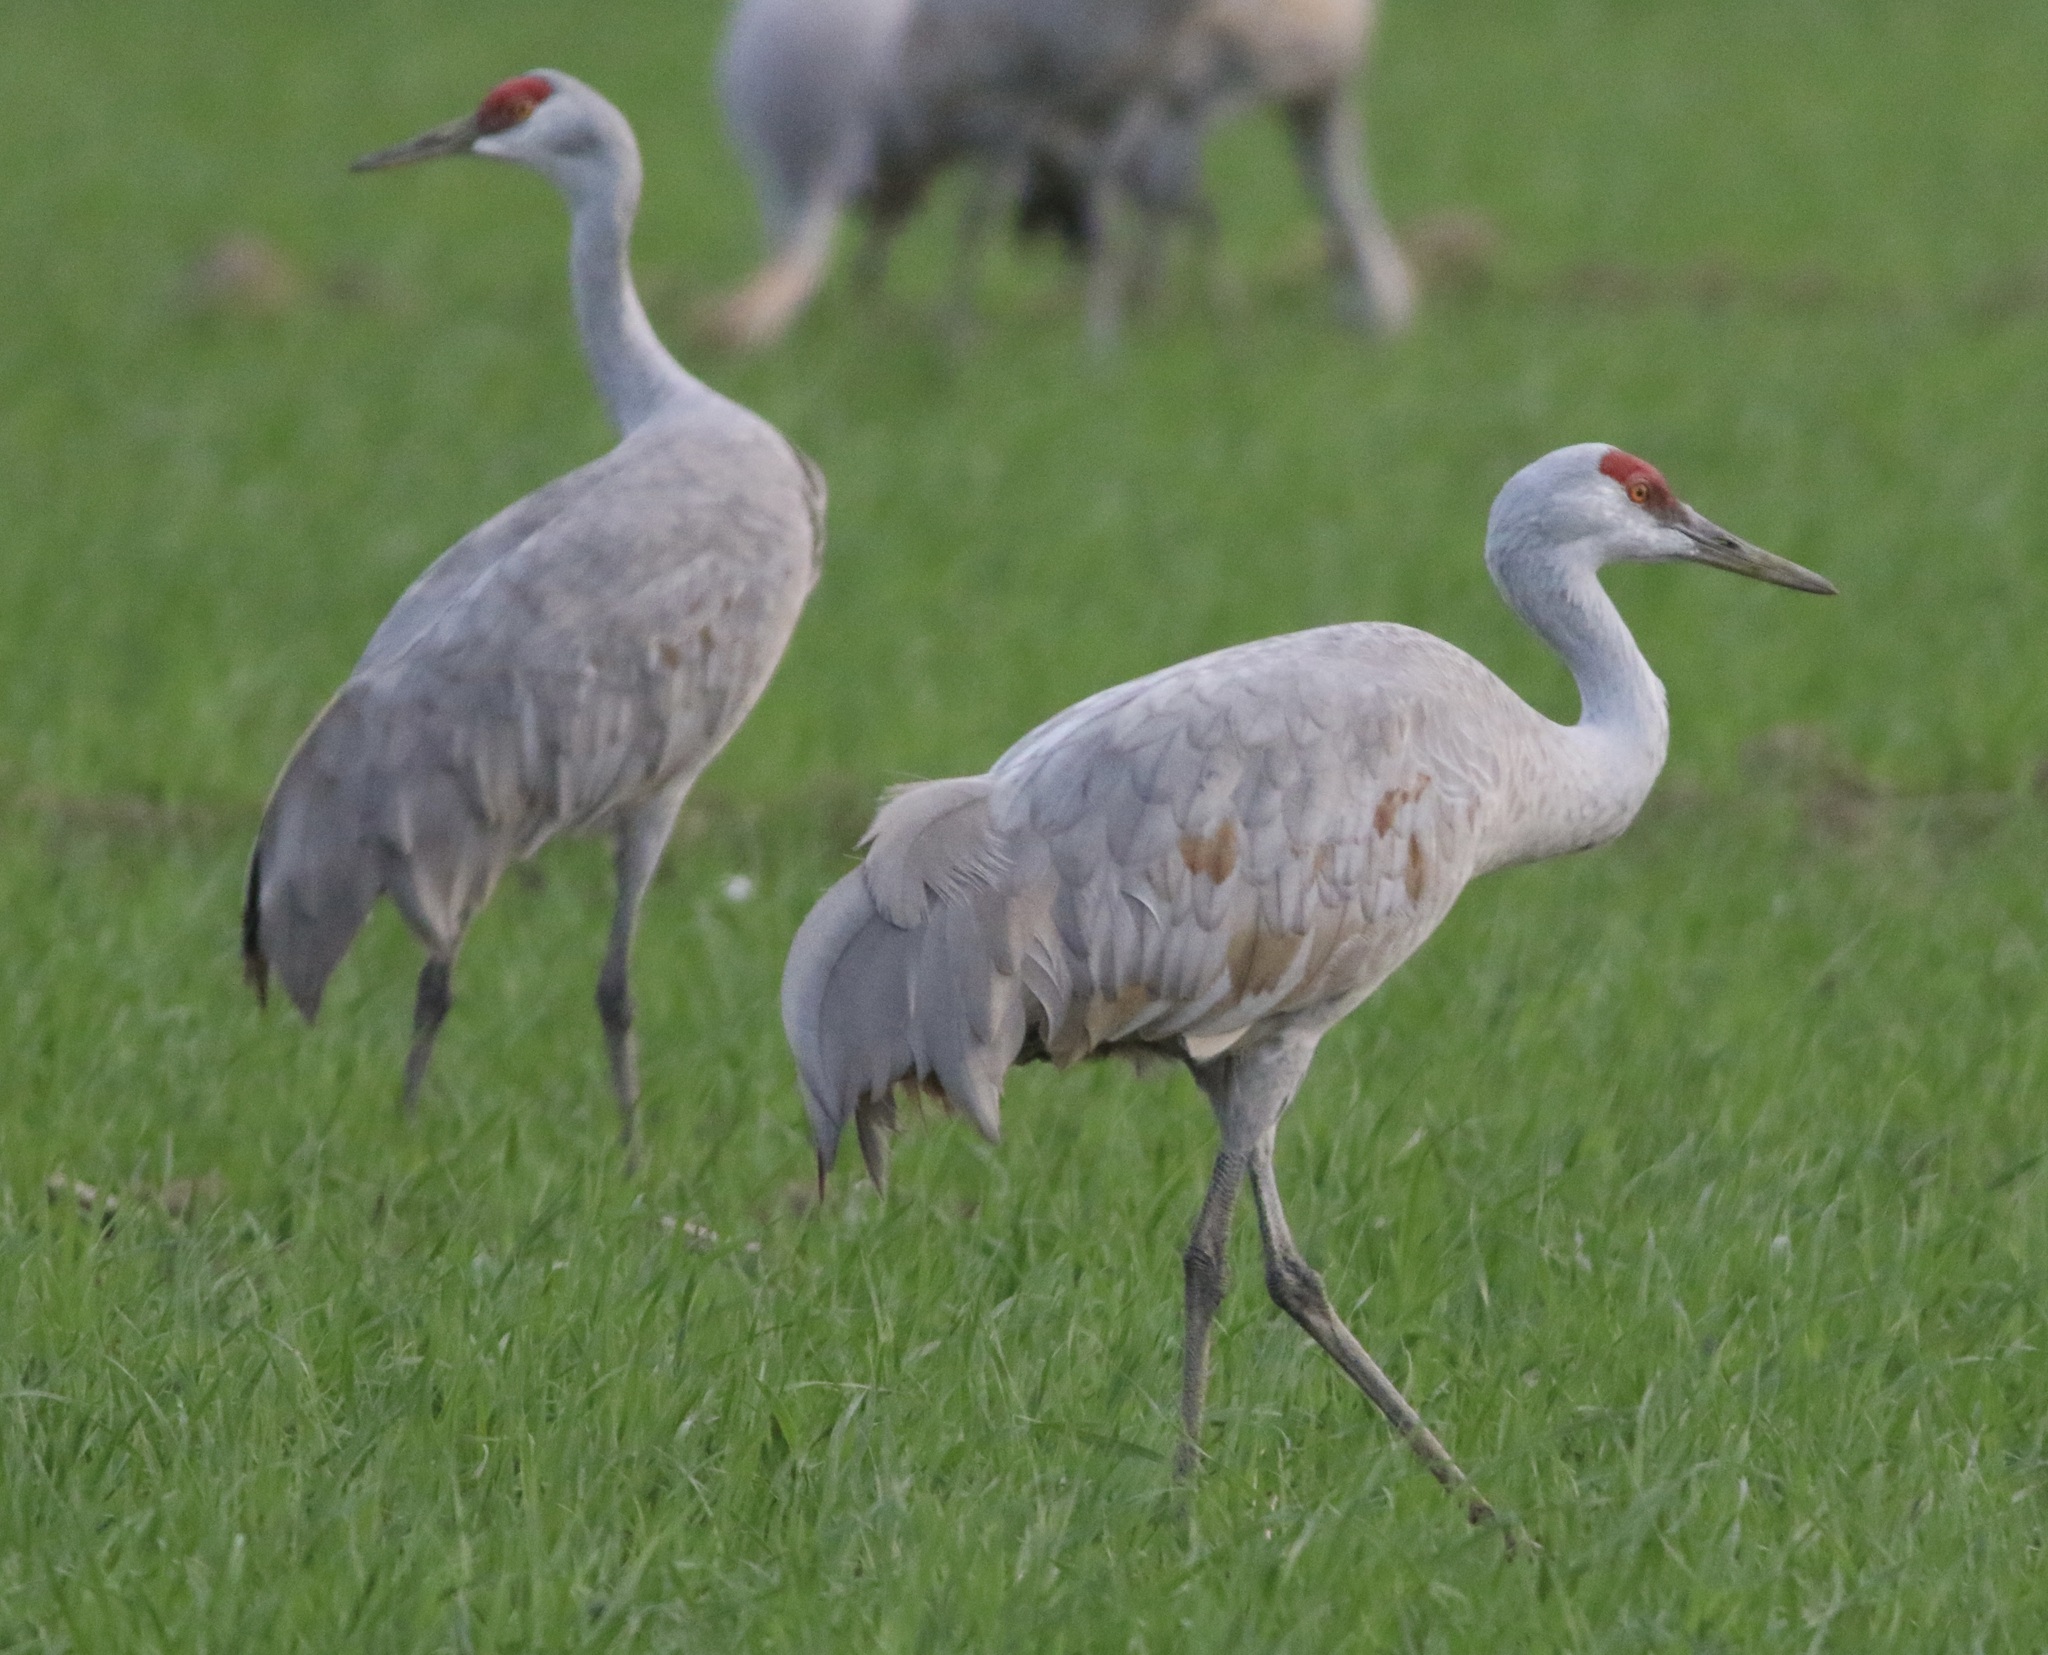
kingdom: Animalia
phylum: Chordata
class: Aves
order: Gruiformes
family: Gruidae
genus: Grus
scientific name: Grus canadensis
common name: Sandhill crane
